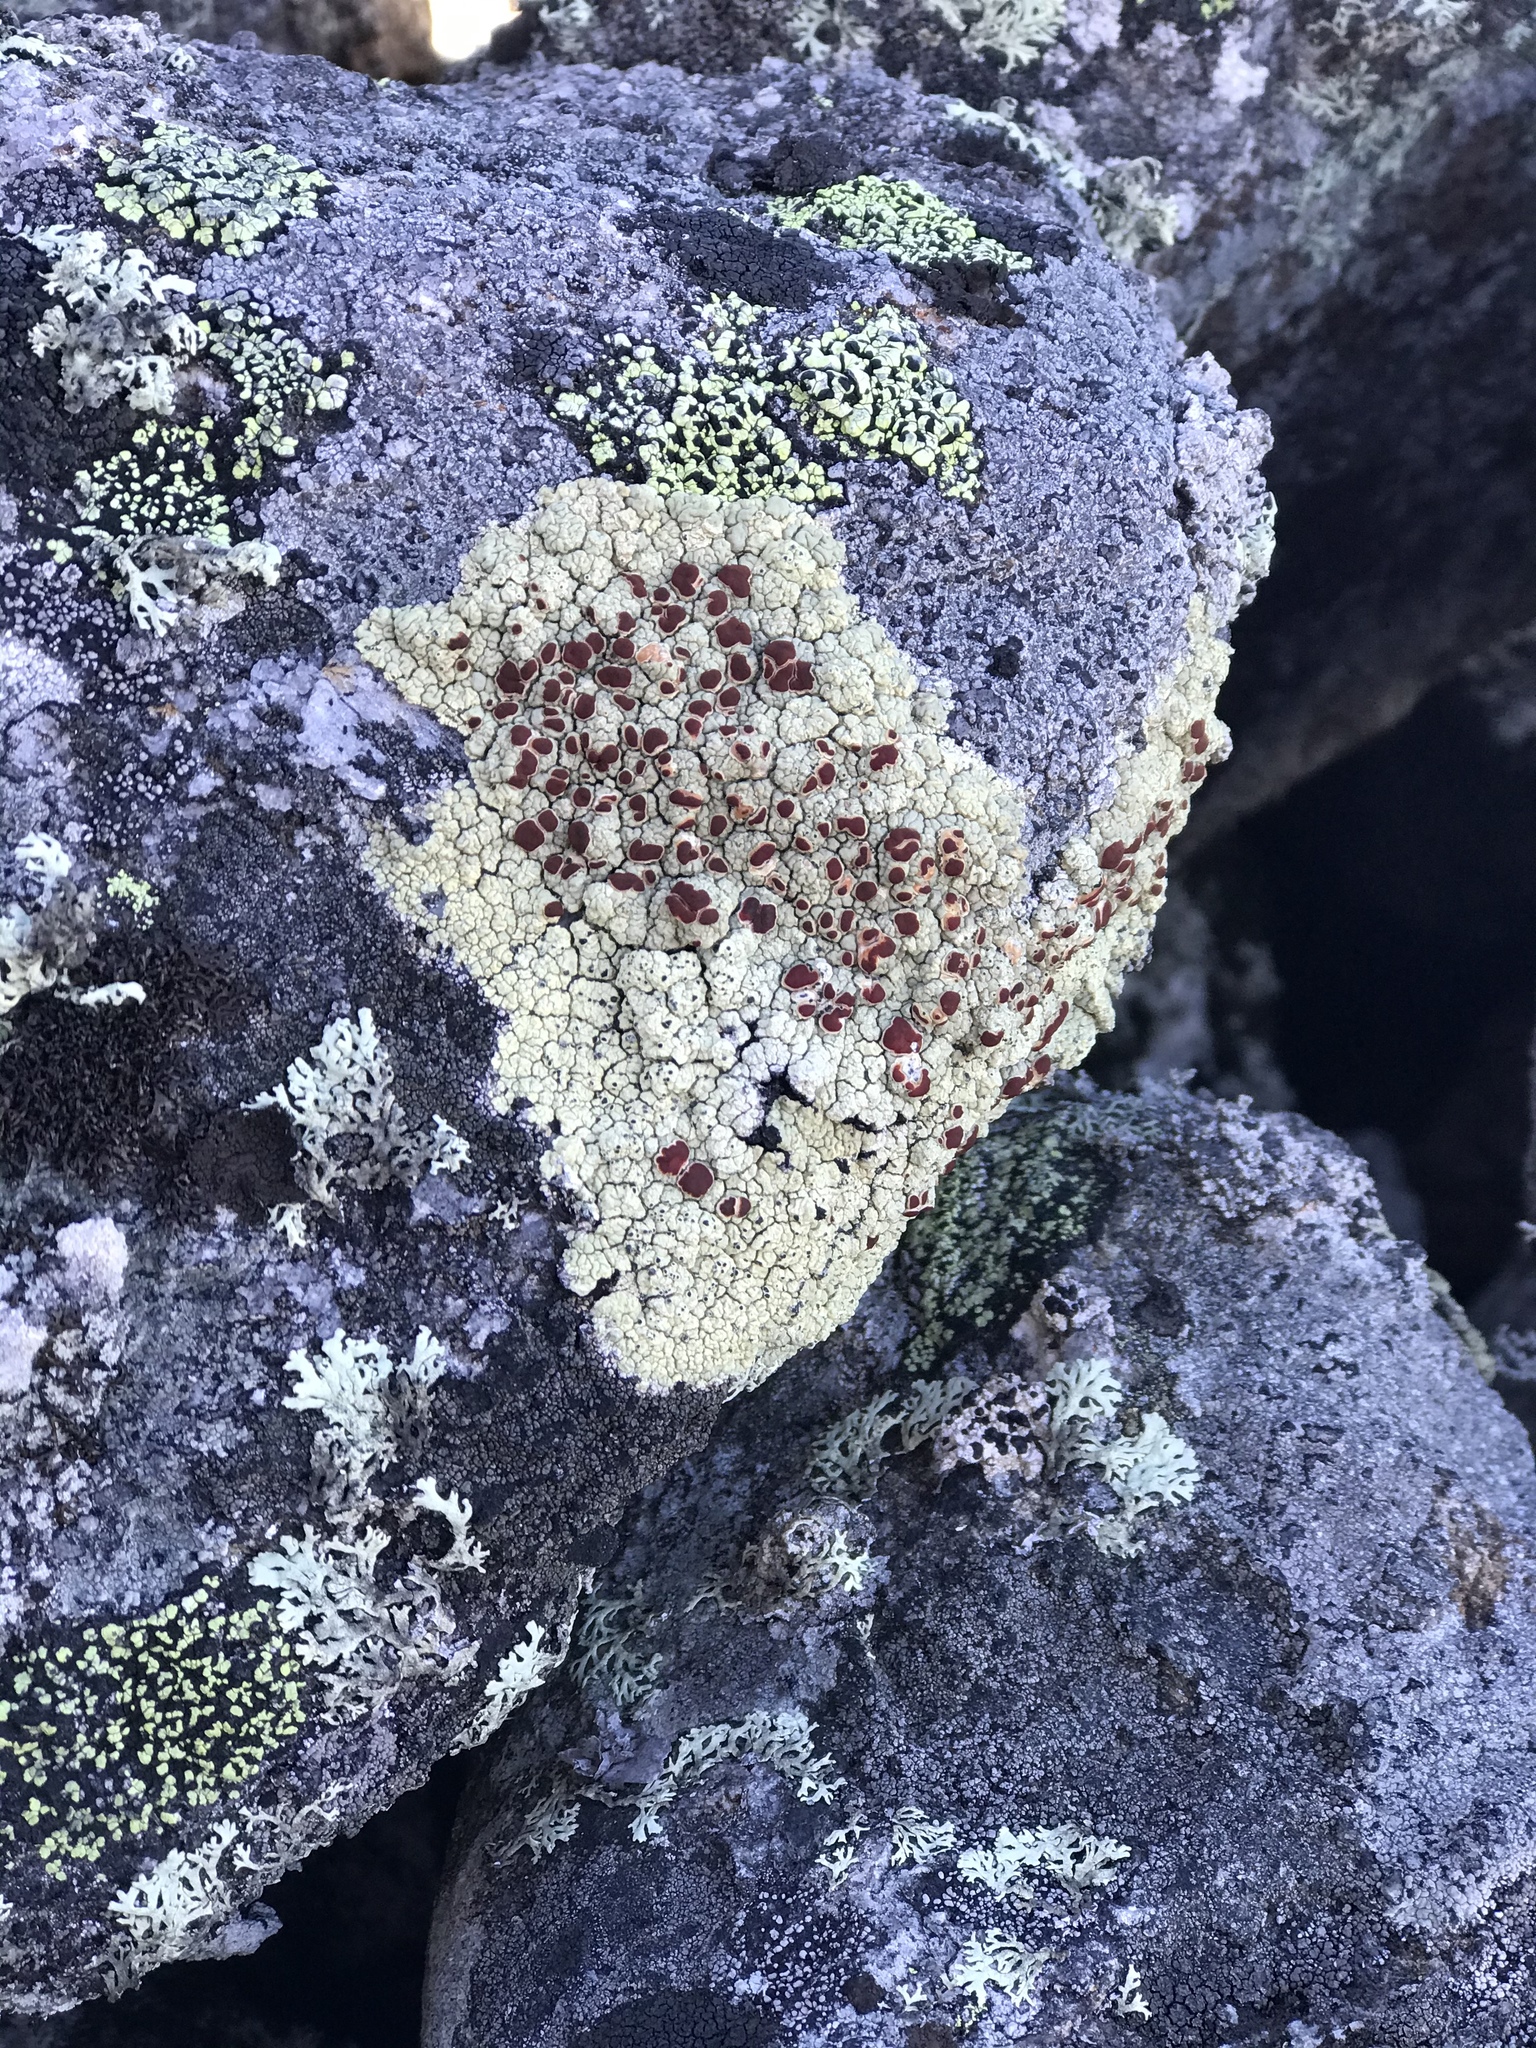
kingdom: Fungi
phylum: Ascomycota
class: Lecanoromycetes
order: Umbilicariales
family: Ophioparmaceae
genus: Ophioparma
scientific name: Ophioparma ventosa
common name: Blood-spot
